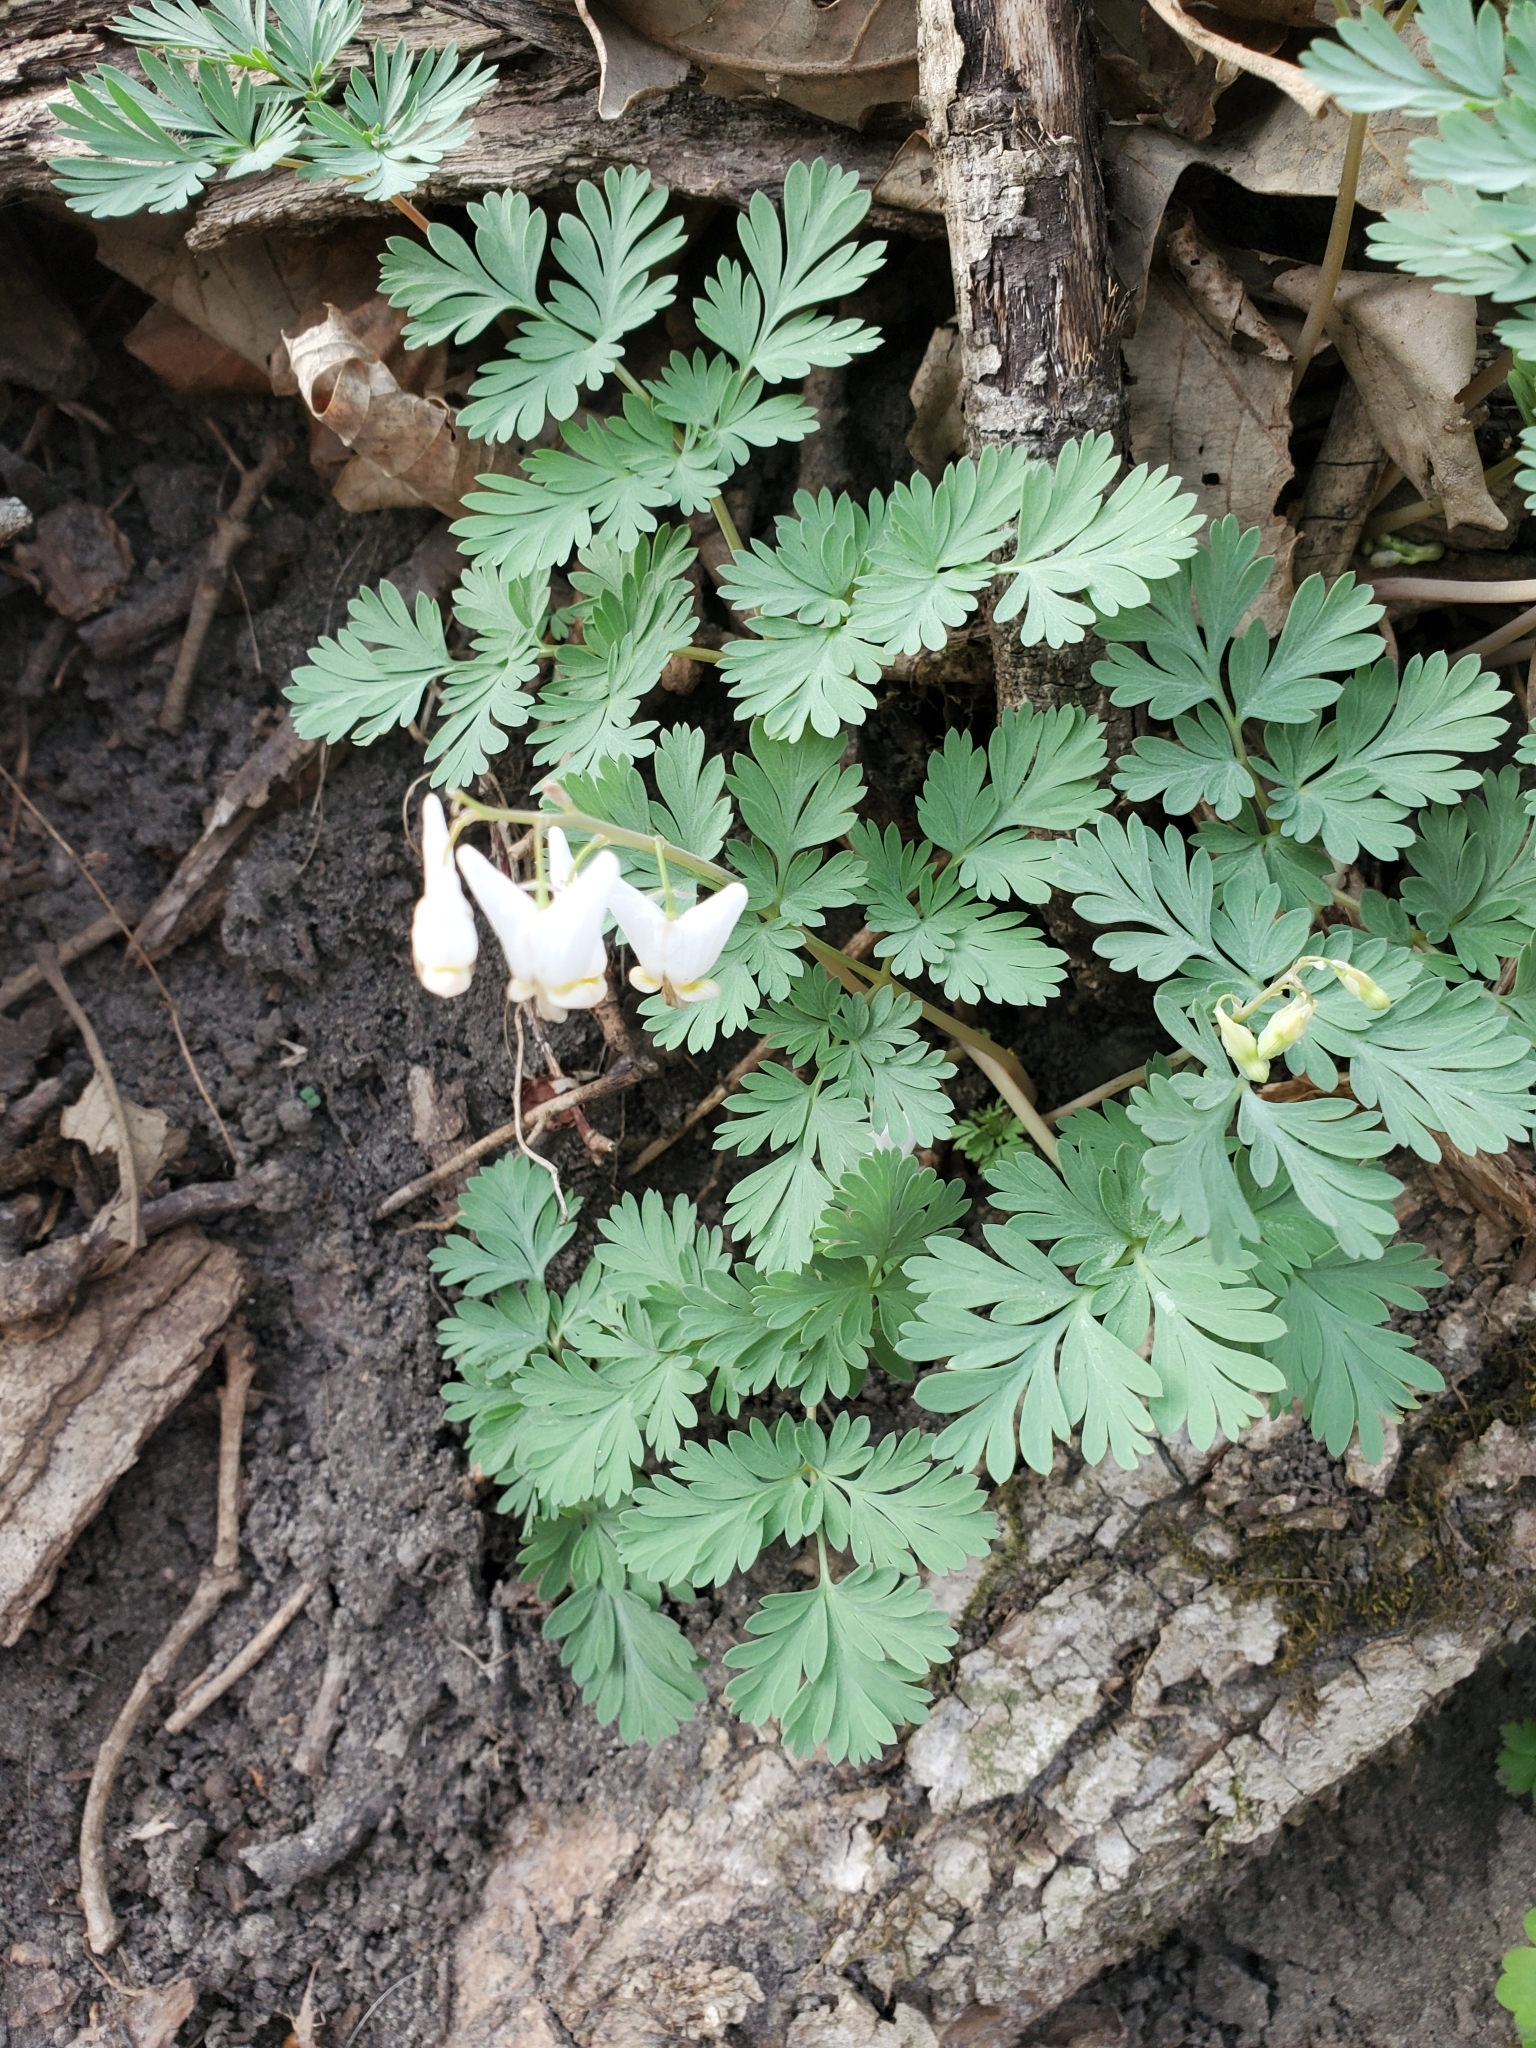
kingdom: Plantae
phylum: Tracheophyta
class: Magnoliopsida
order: Ranunculales
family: Papaveraceae
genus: Dicentra
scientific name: Dicentra cucullaria
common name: Dutchman's breeches
